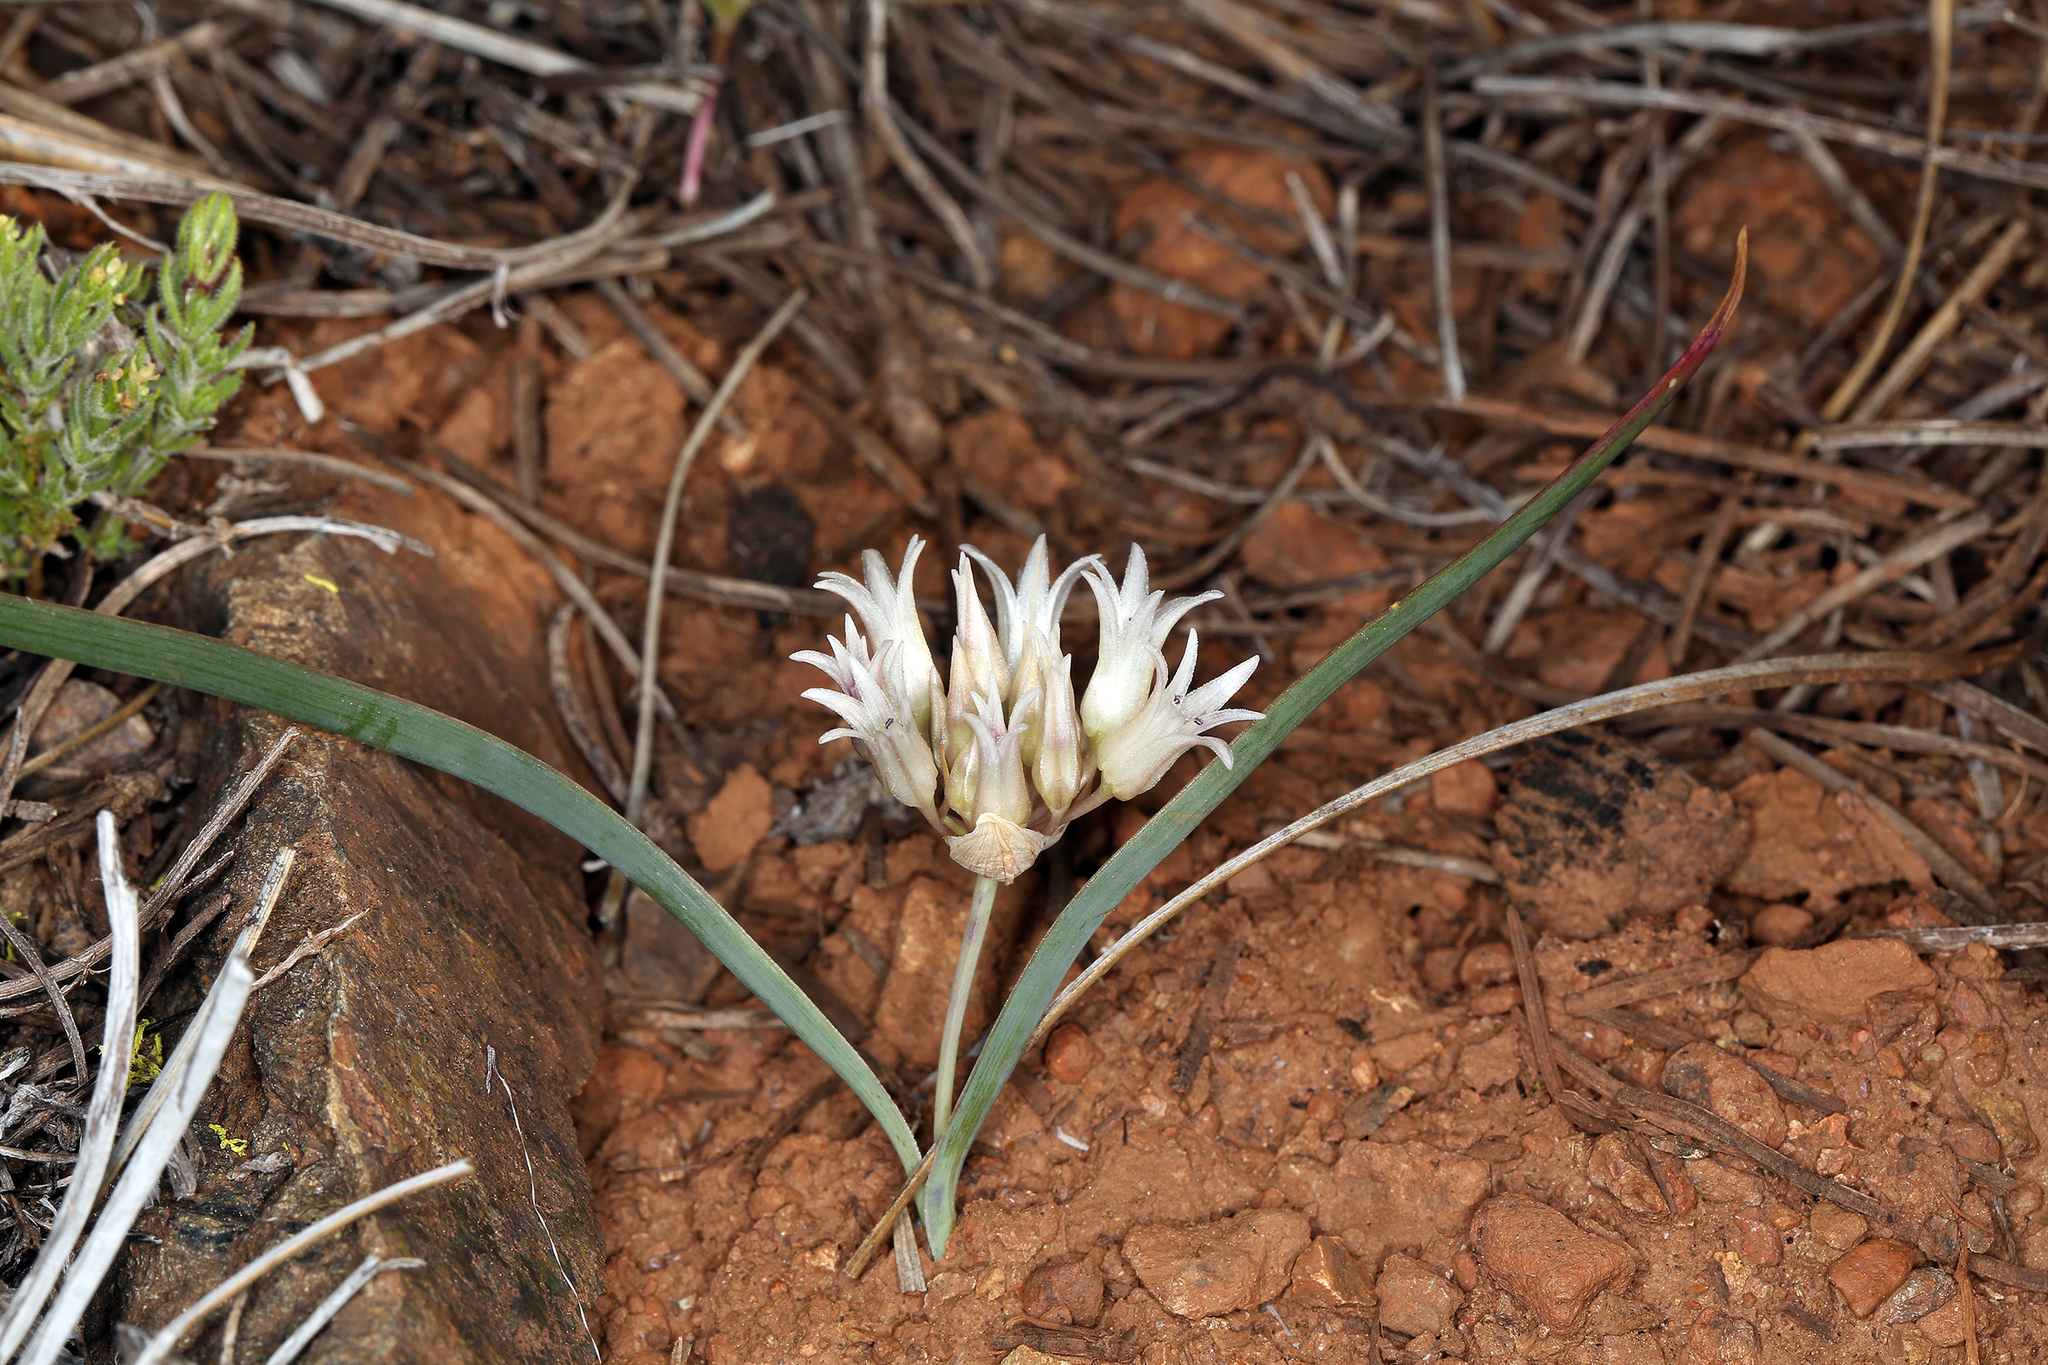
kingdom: Plantae
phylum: Tracheophyta
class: Liliopsida
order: Asparagales
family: Amaryllidaceae
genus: Allium
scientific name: Allium falcifolium
